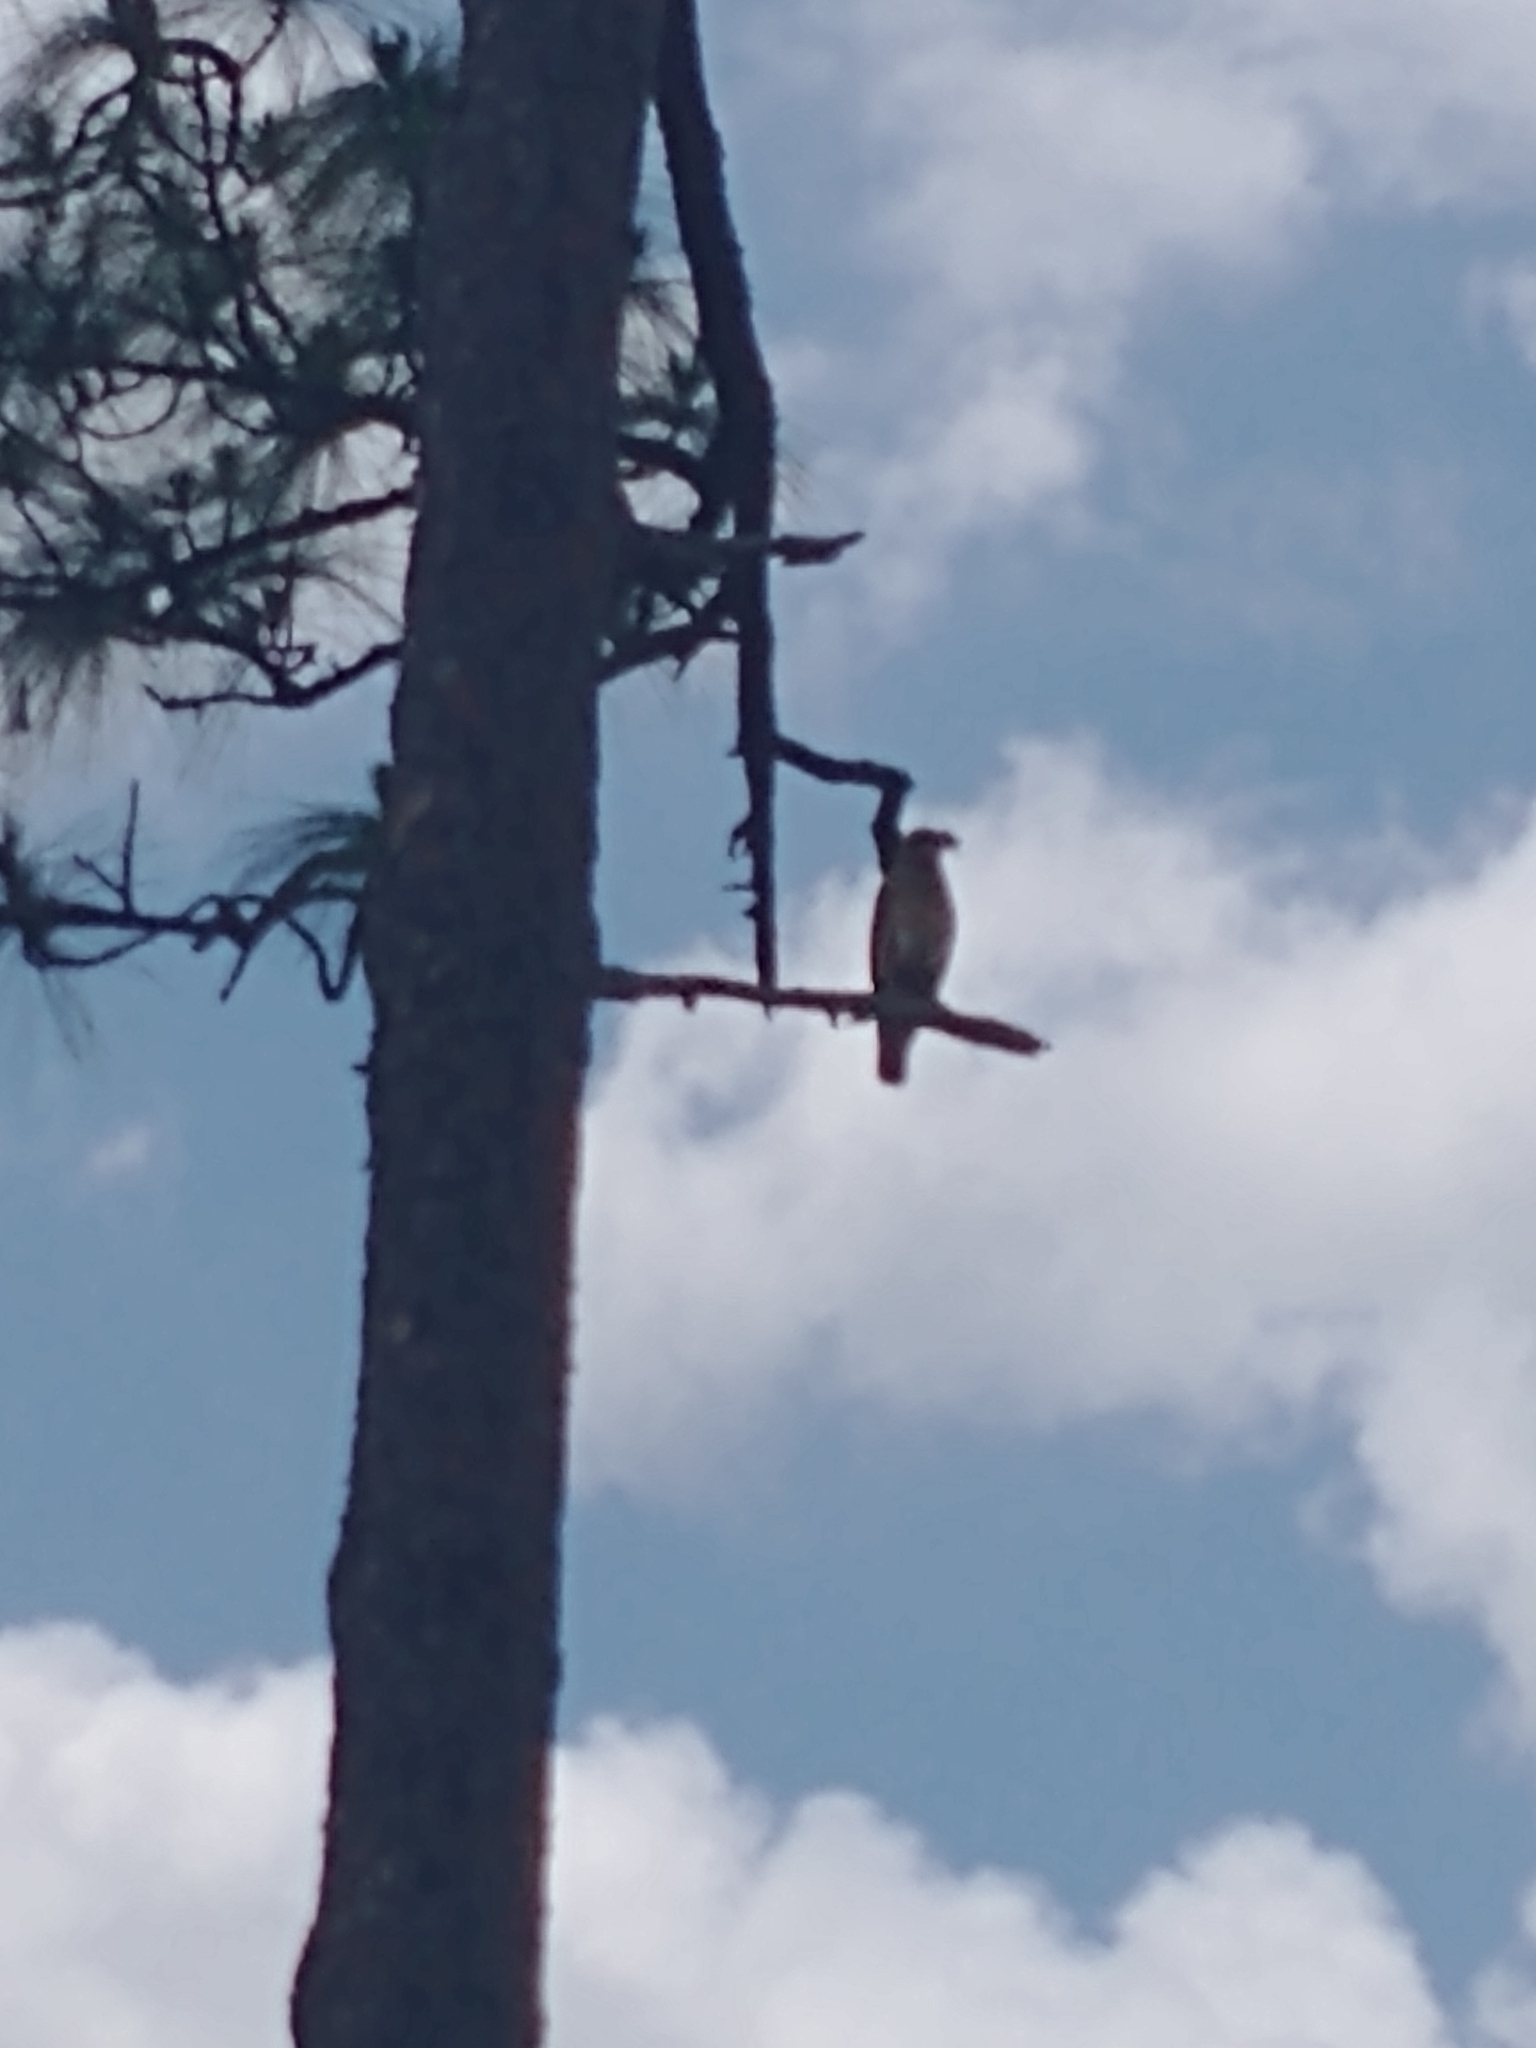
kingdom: Animalia
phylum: Chordata
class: Aves
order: Accipitriformes
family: Accipitridae
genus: Buteo
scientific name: Buteo lineatus
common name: Red-shouldered hawk
